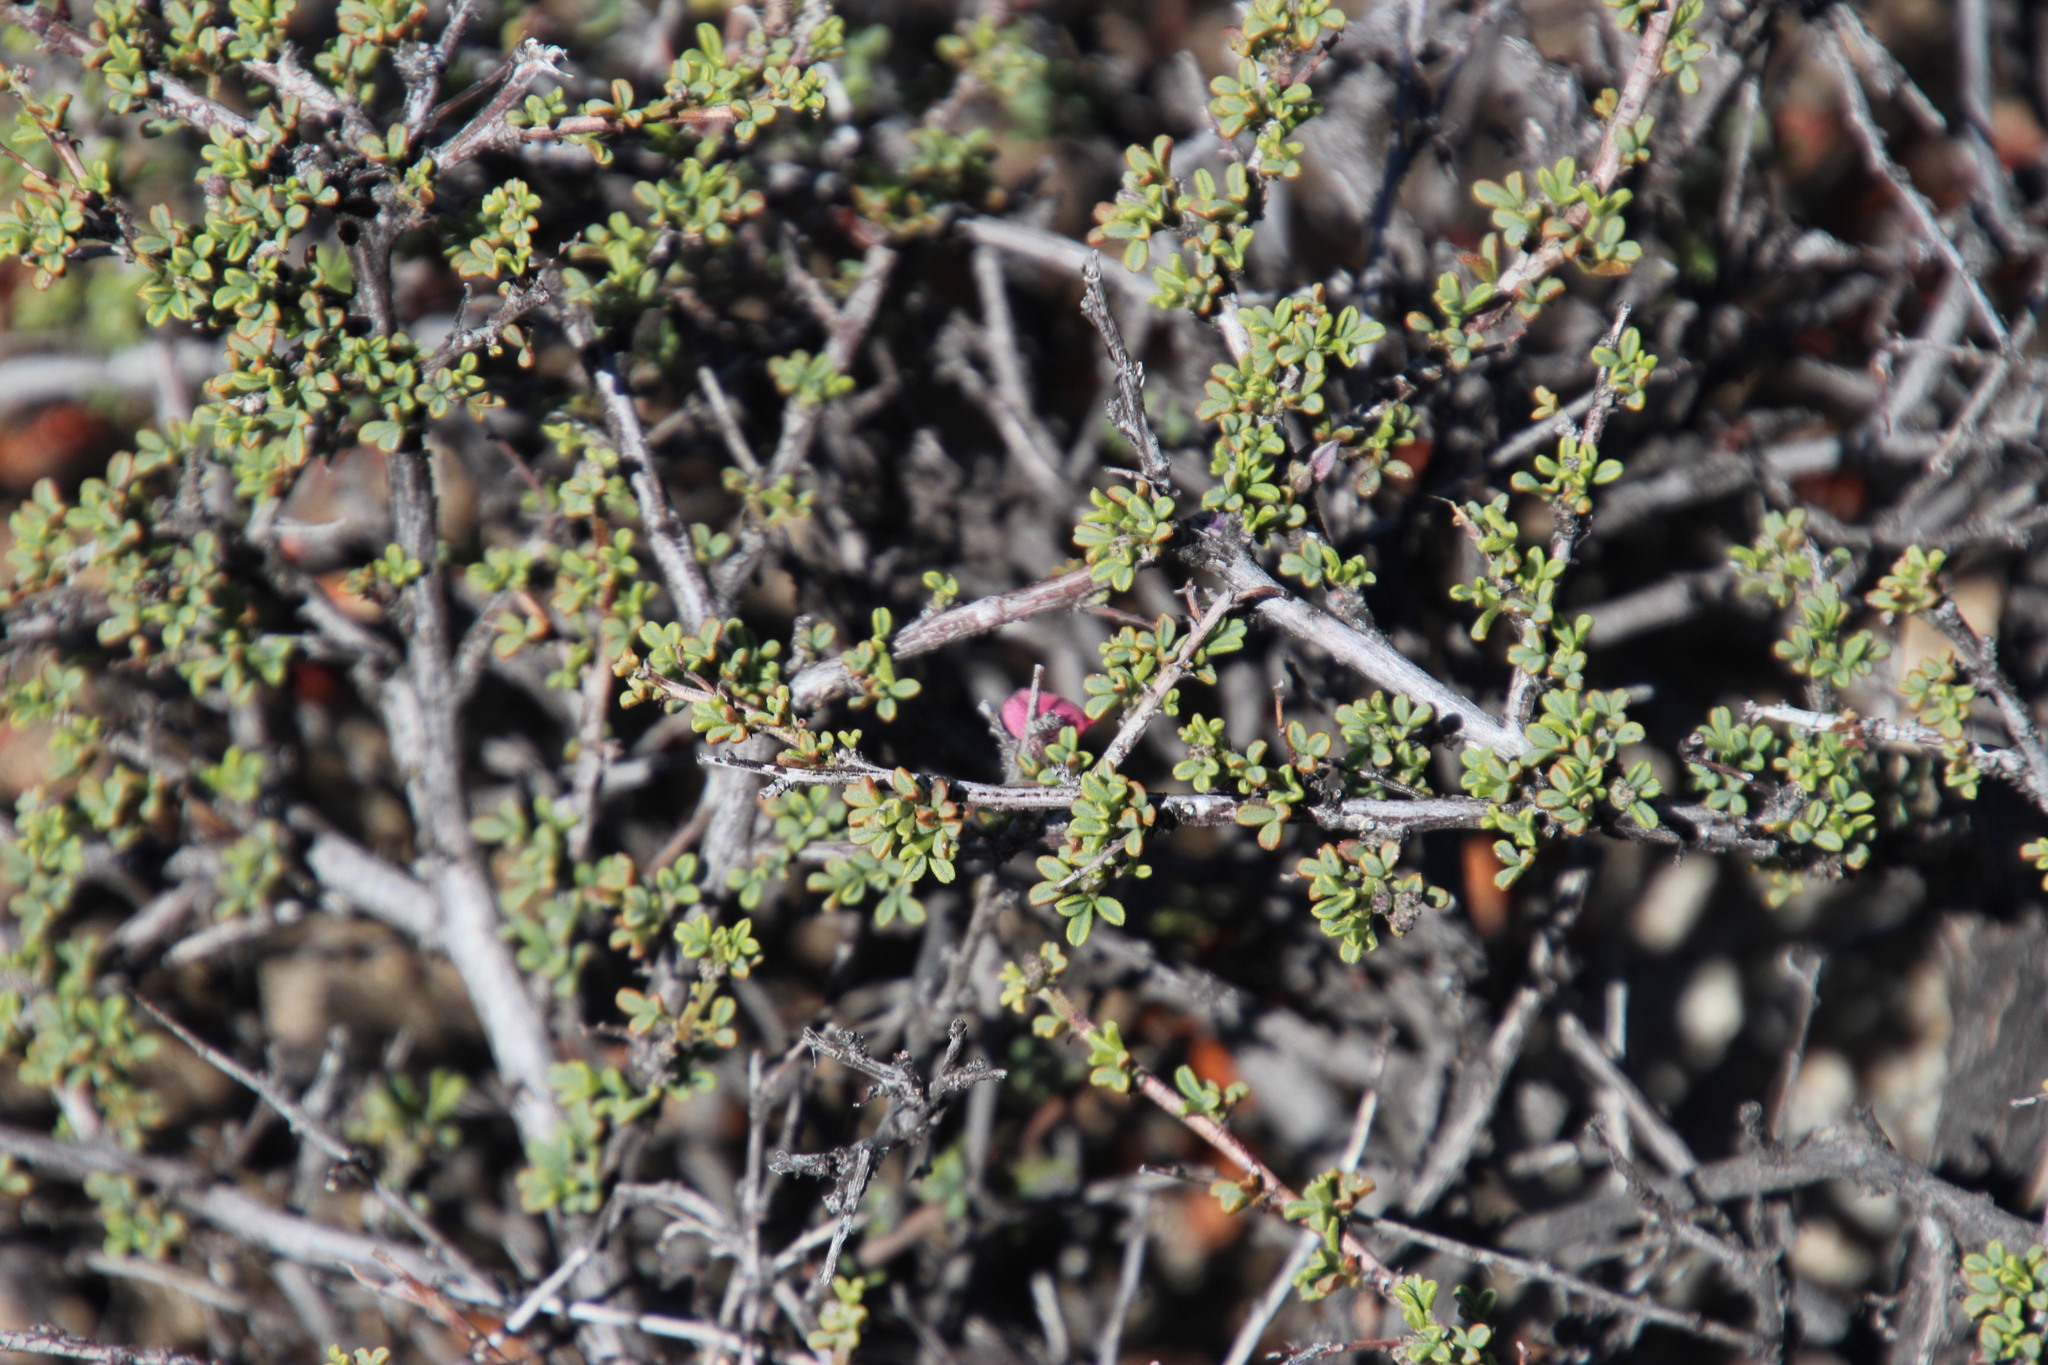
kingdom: Plantae
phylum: Tracheophyta
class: Magnoliopsida
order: Fabales
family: Fabaceae
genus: Indigofera
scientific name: Indigofera spinescens
